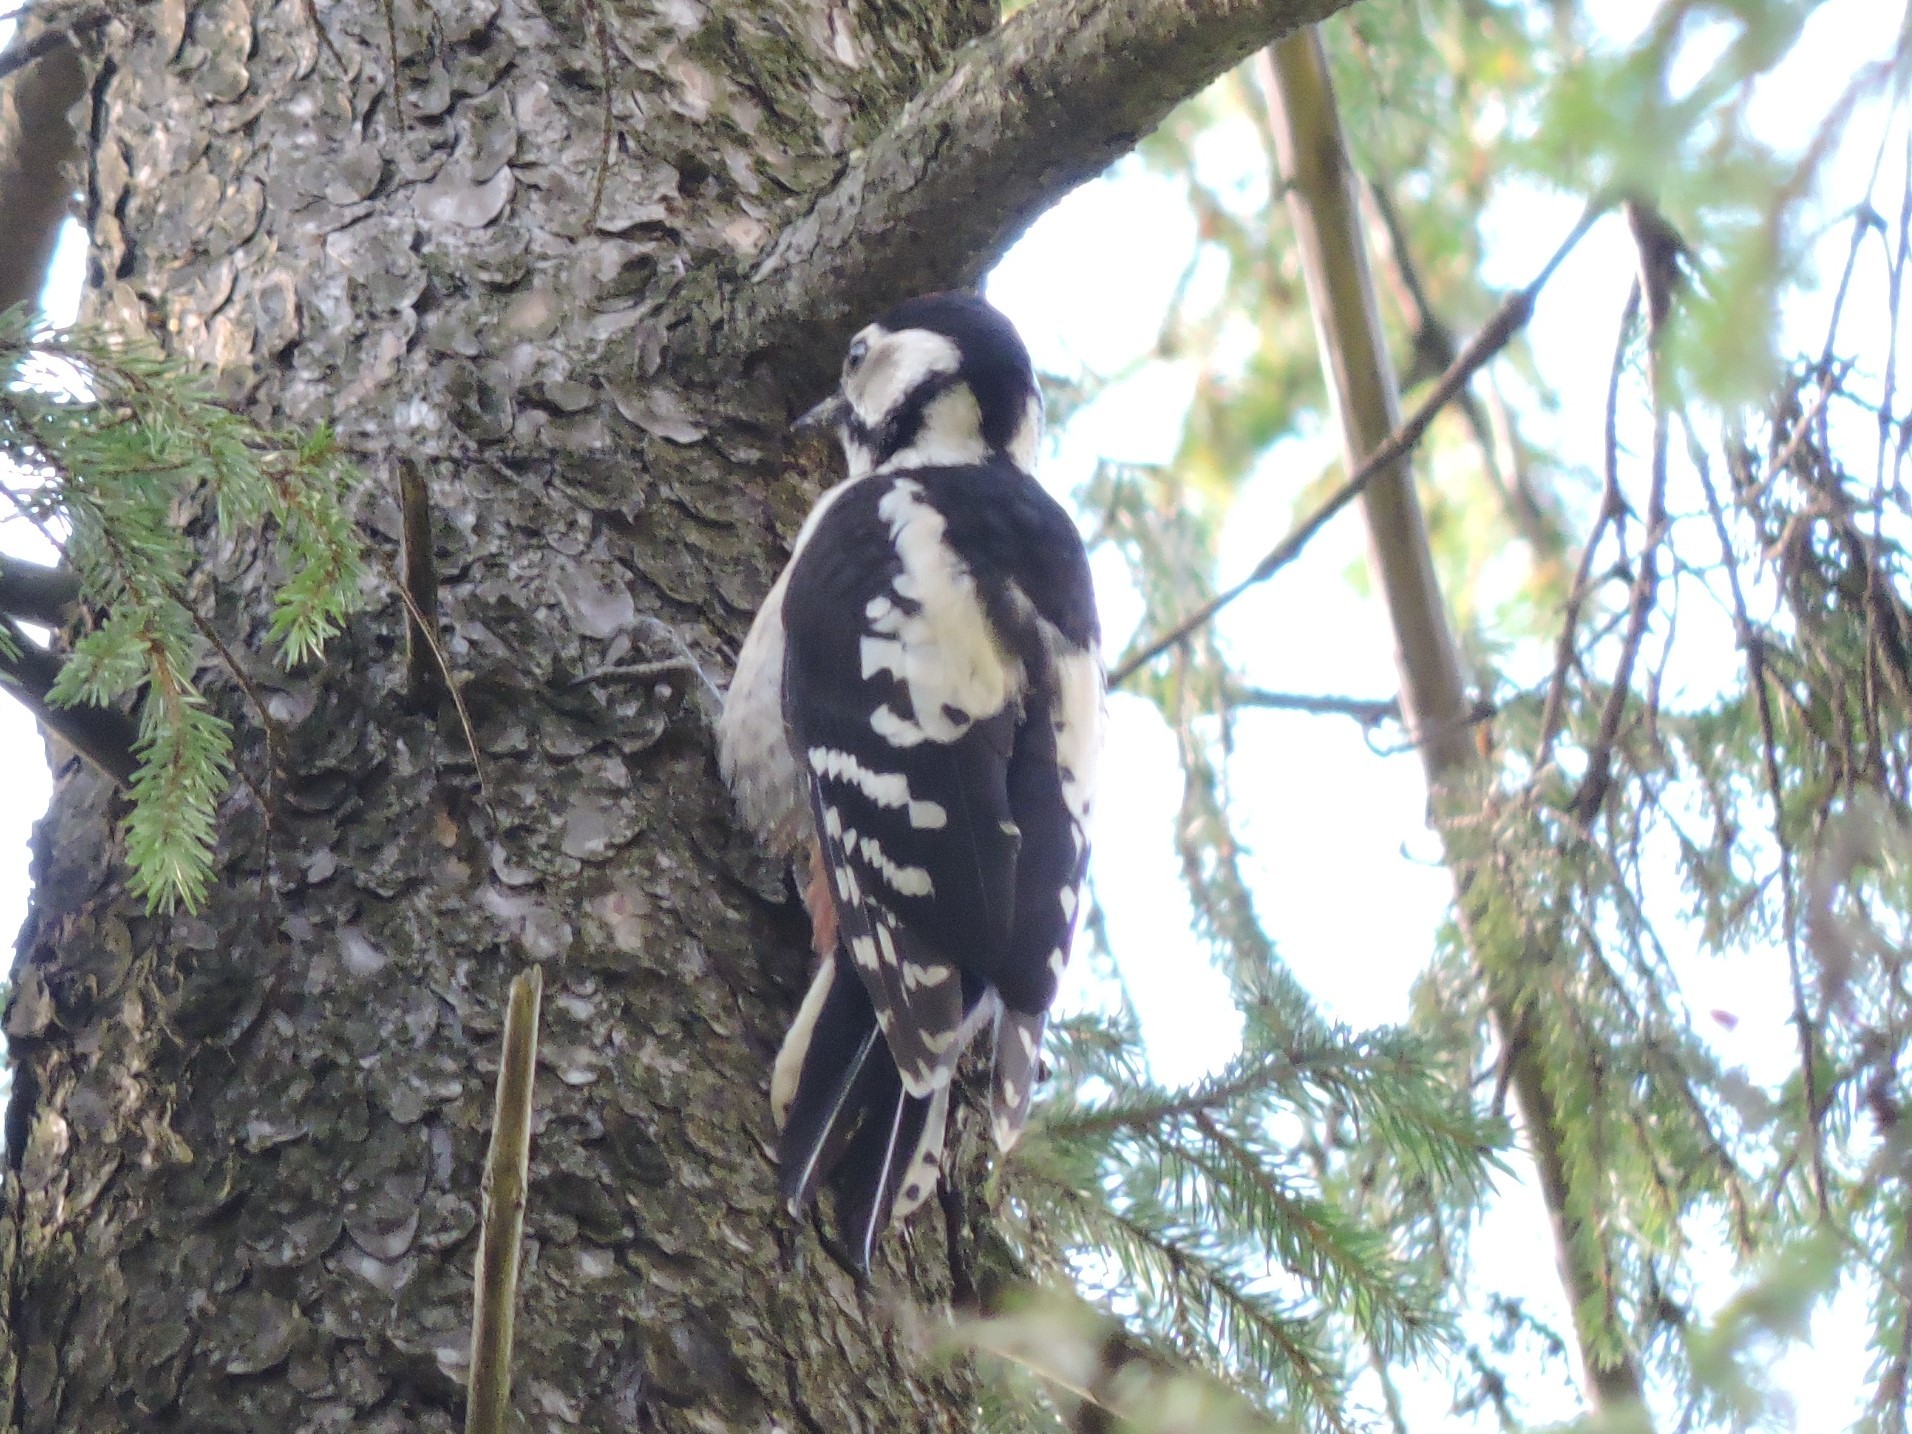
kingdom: Animalia
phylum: Chordata
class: Aves
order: Piciformes
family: Picidae
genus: Dendrocopos
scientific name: Dendrocopos major
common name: Great spotted woodpecker
